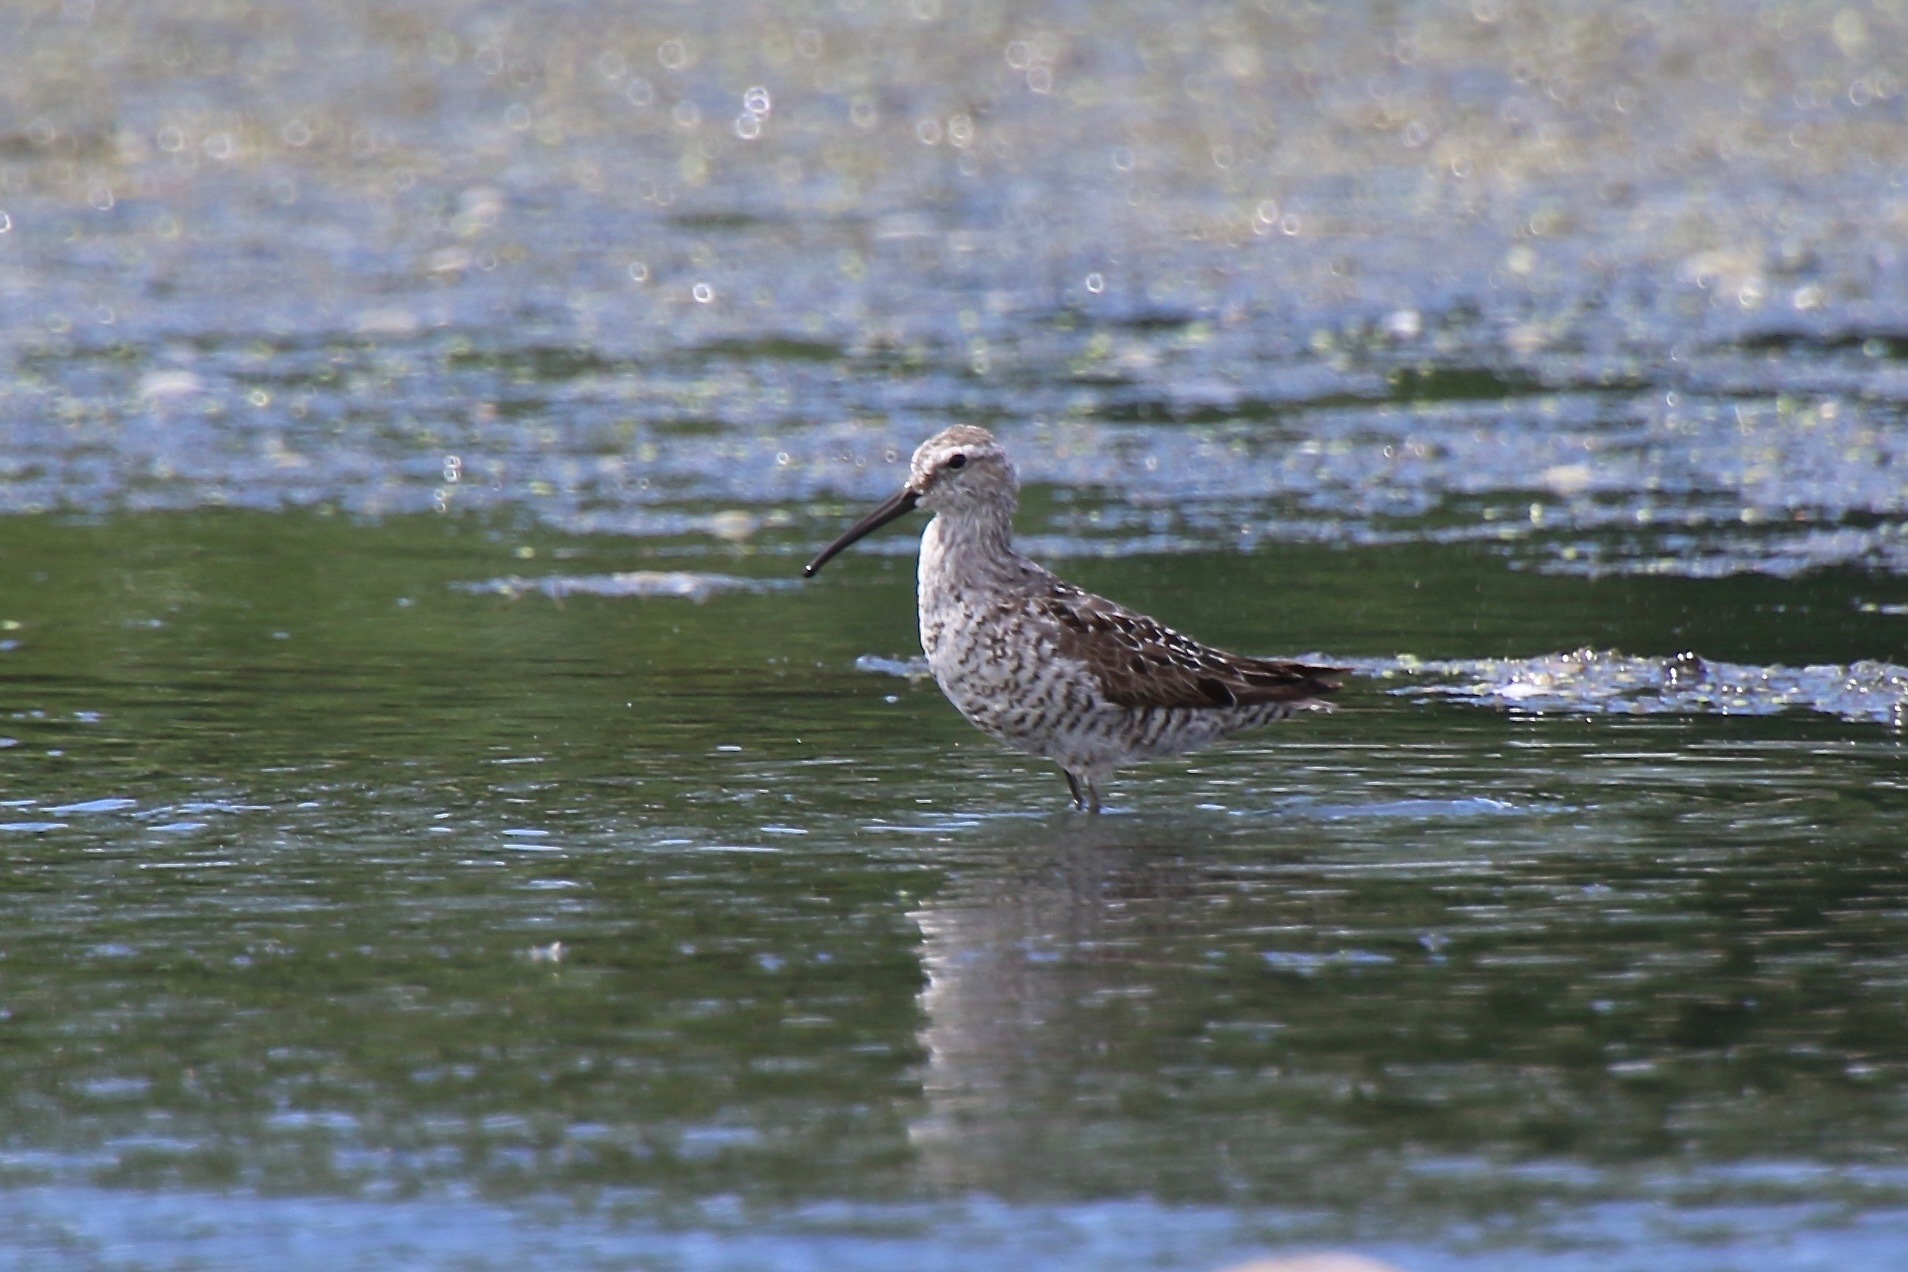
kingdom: Animalia
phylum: Chordata
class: Aves
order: Charadriiformes
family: Scolopacidae
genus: Calidris
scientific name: Calidris himantopus
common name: Stilt sandpiper
